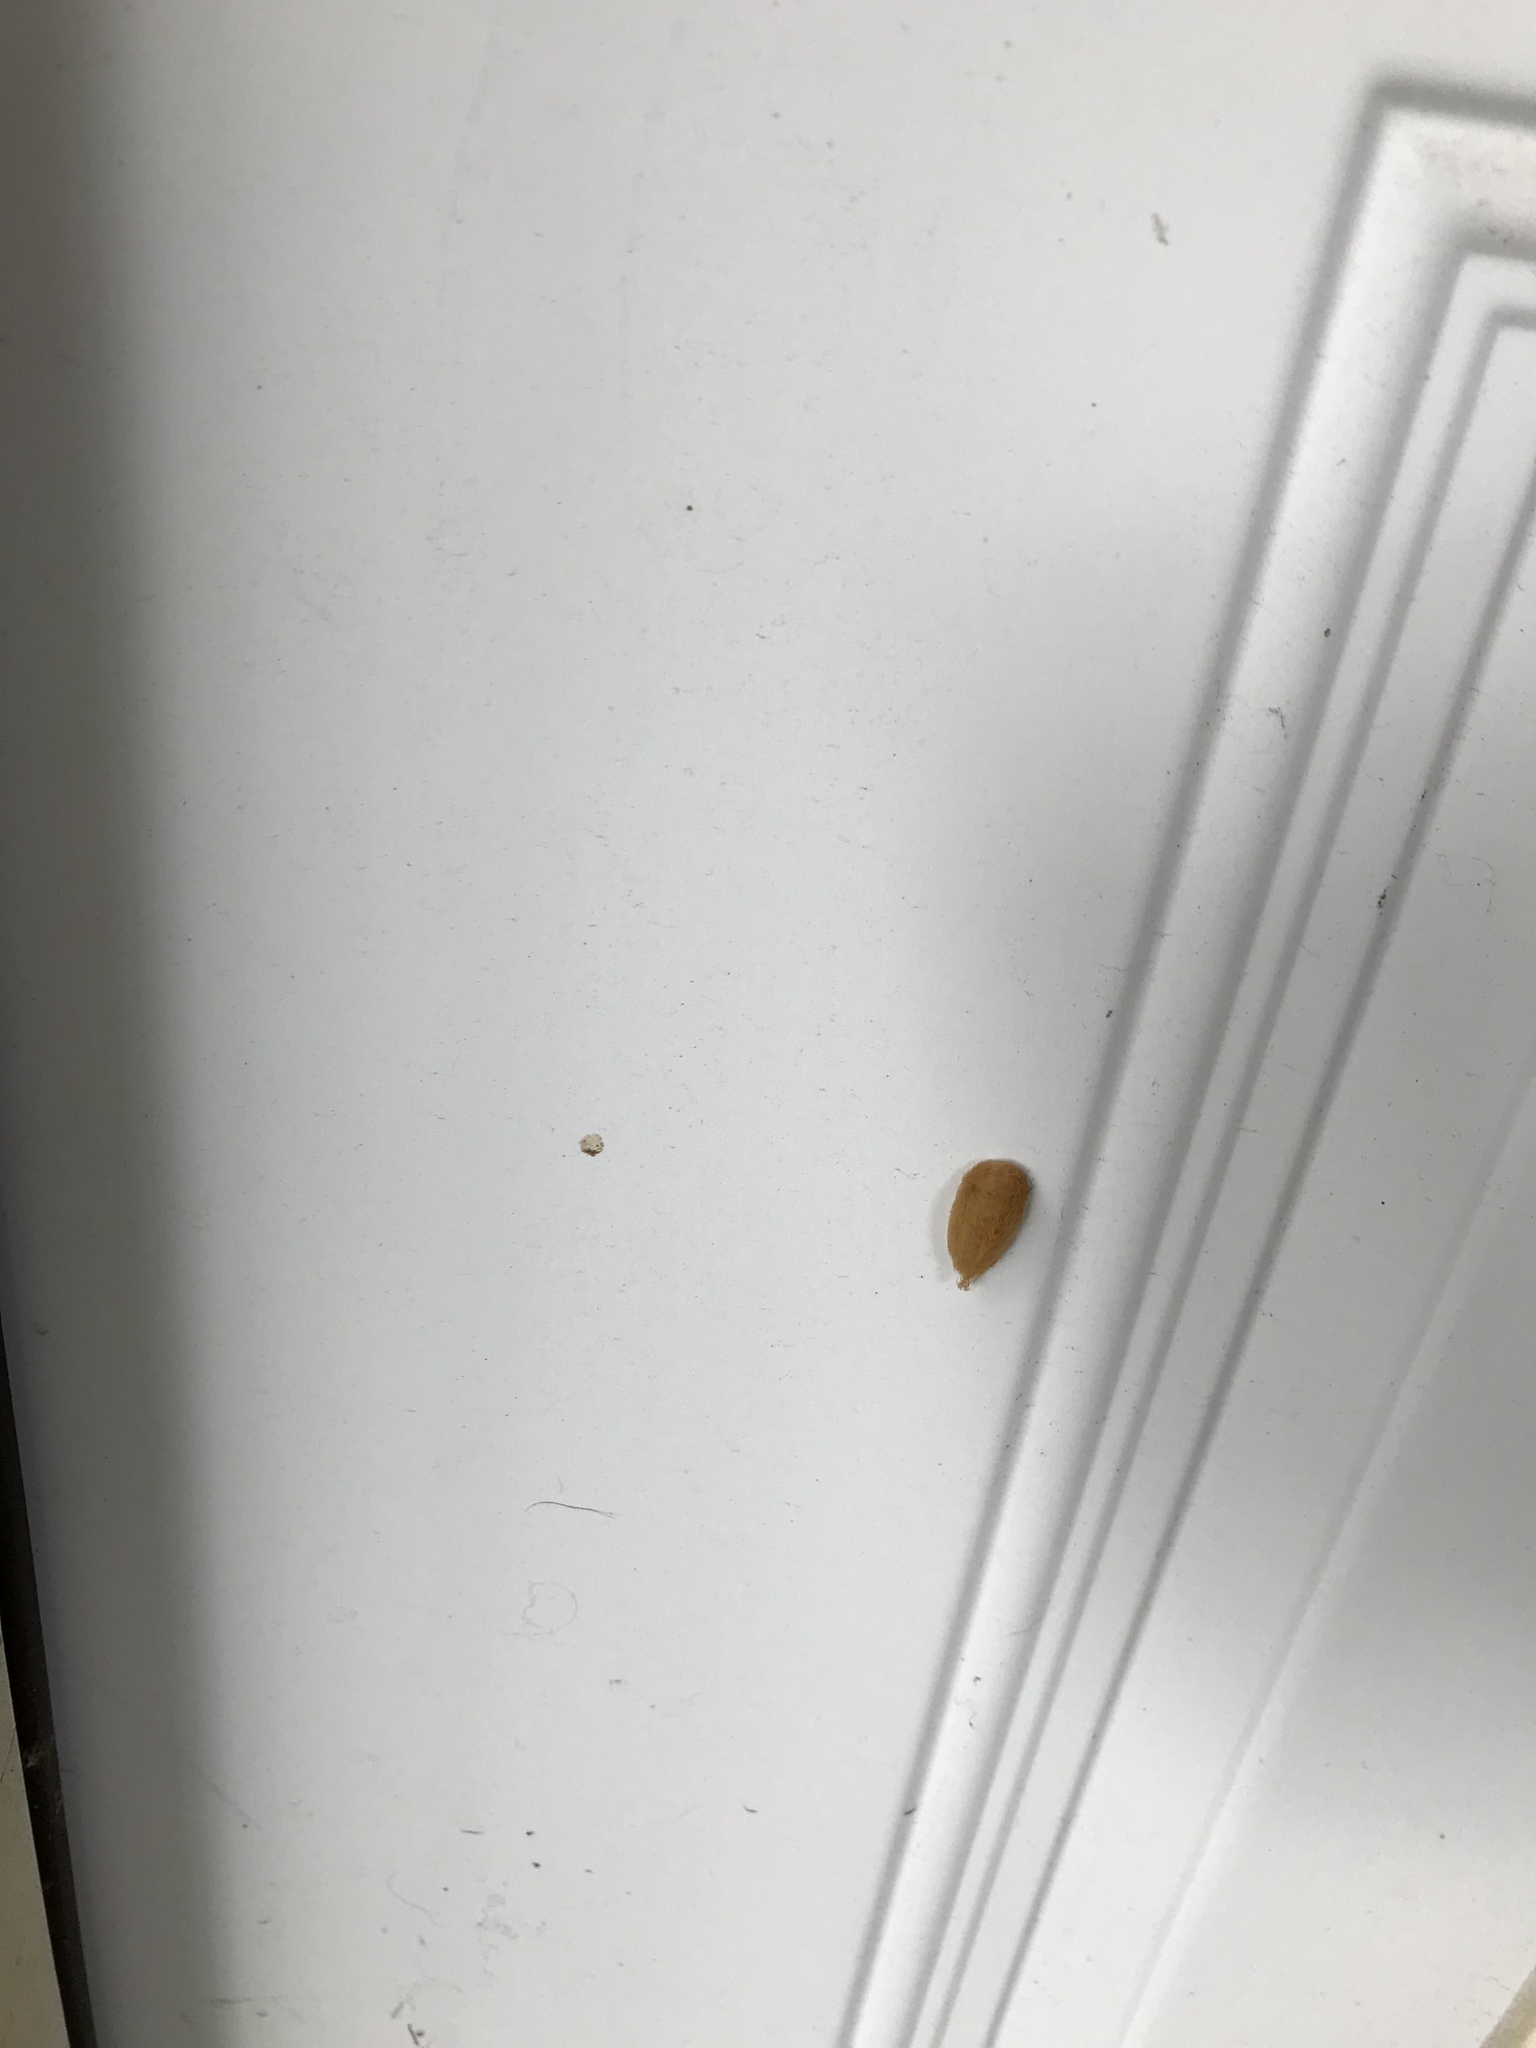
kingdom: Animalia
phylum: Arthropoda
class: Insecta
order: Lepidoptera
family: Megalopygidae
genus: Megalopyge
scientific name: Megalopyge opercularis
